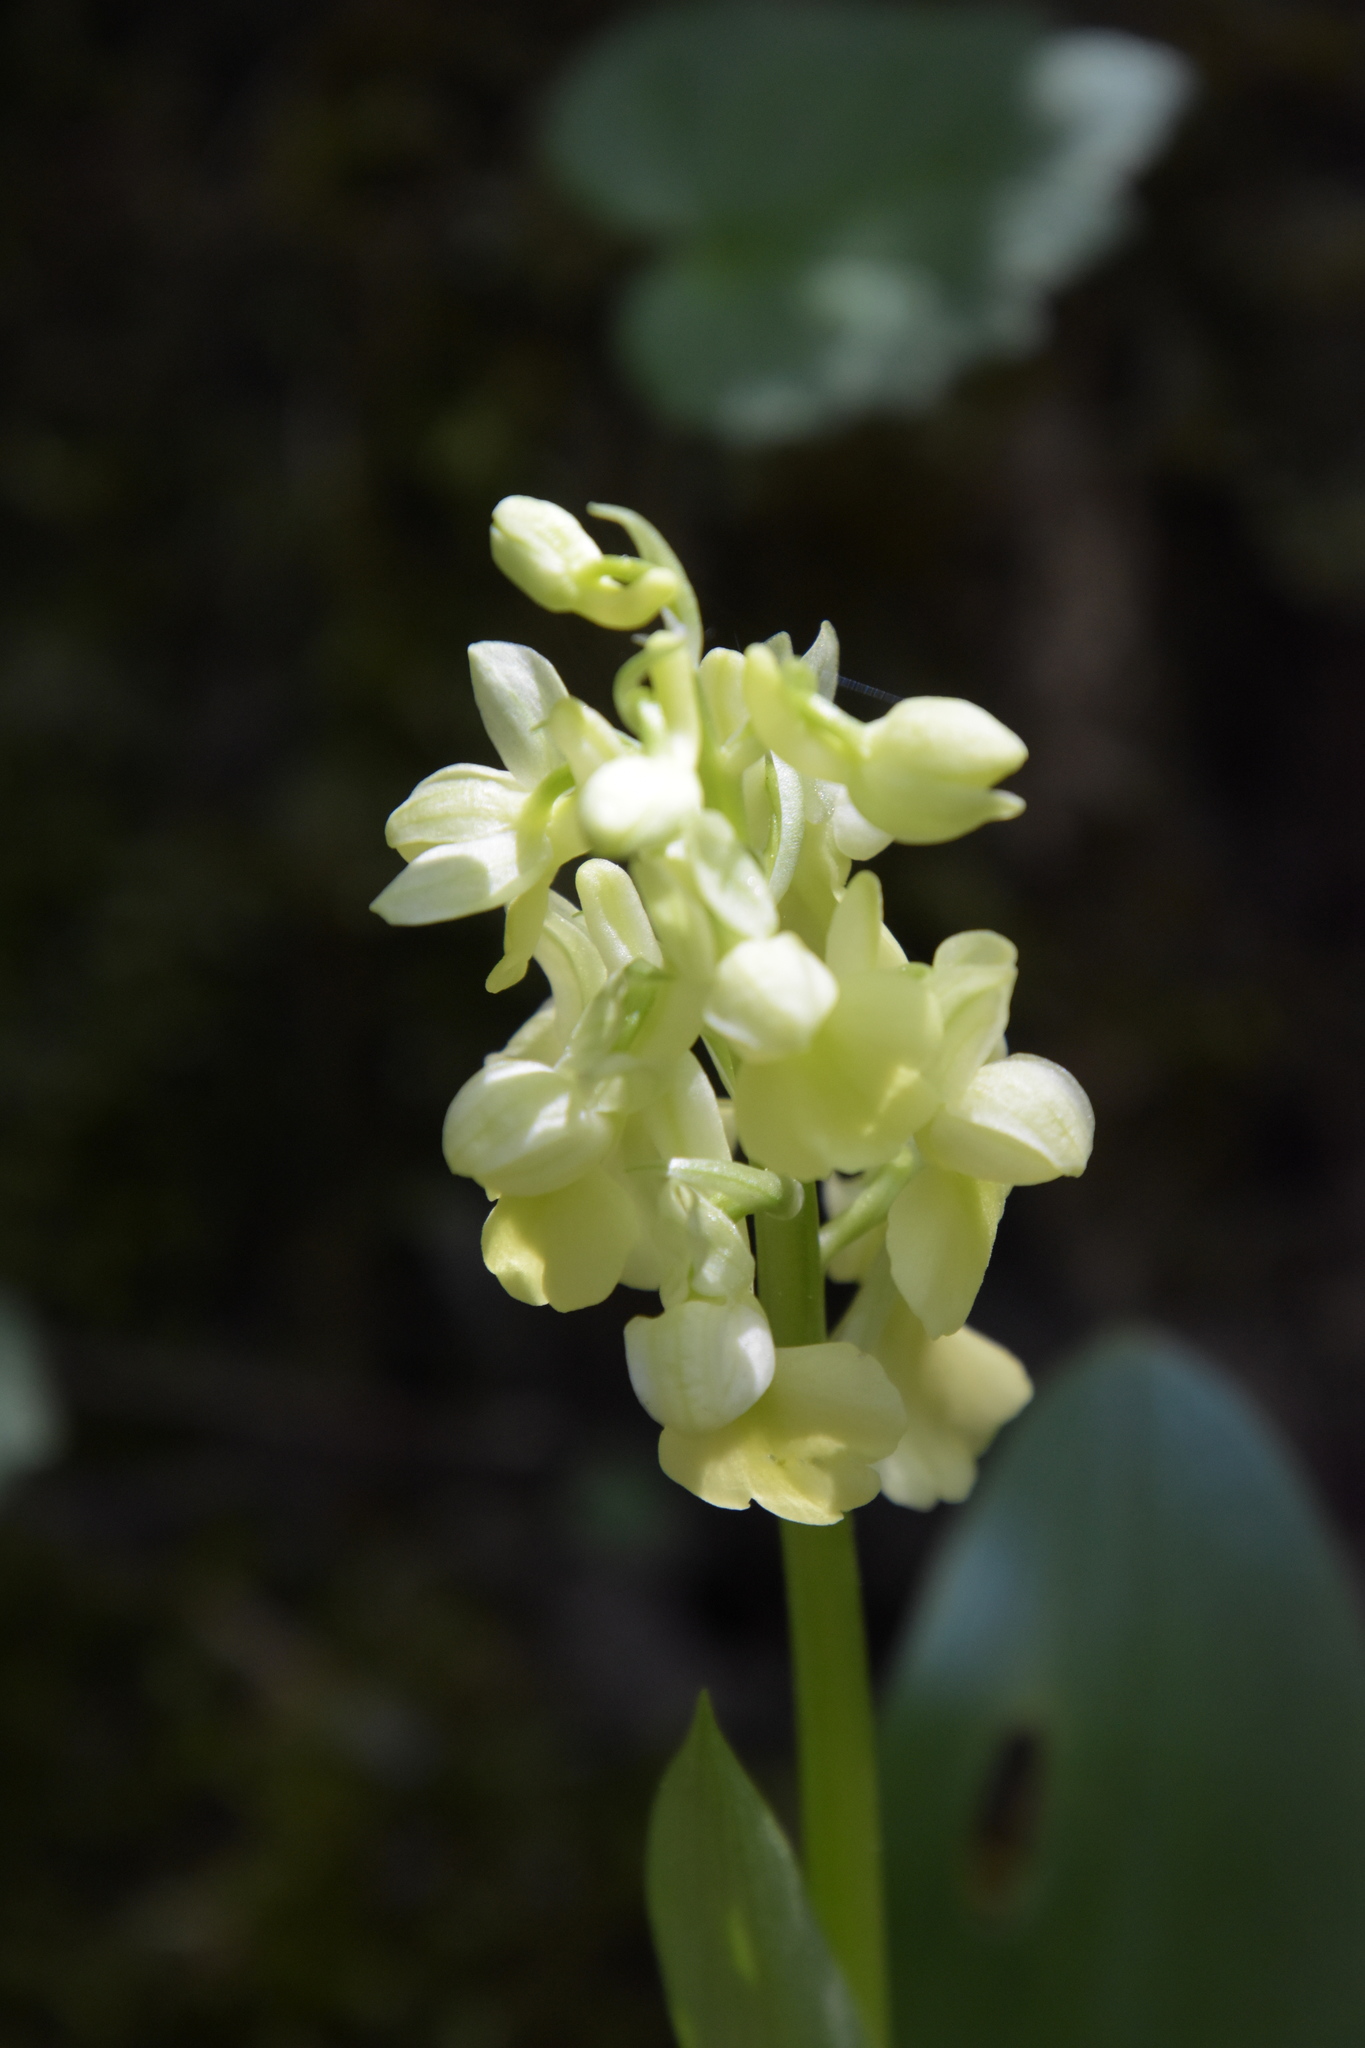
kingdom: Plantae
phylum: Tracheophyta
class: Liliopsida
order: Asparagales
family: Orchidaceae
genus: Orchis
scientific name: Orchis pallens
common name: Pale-flowered orchid
